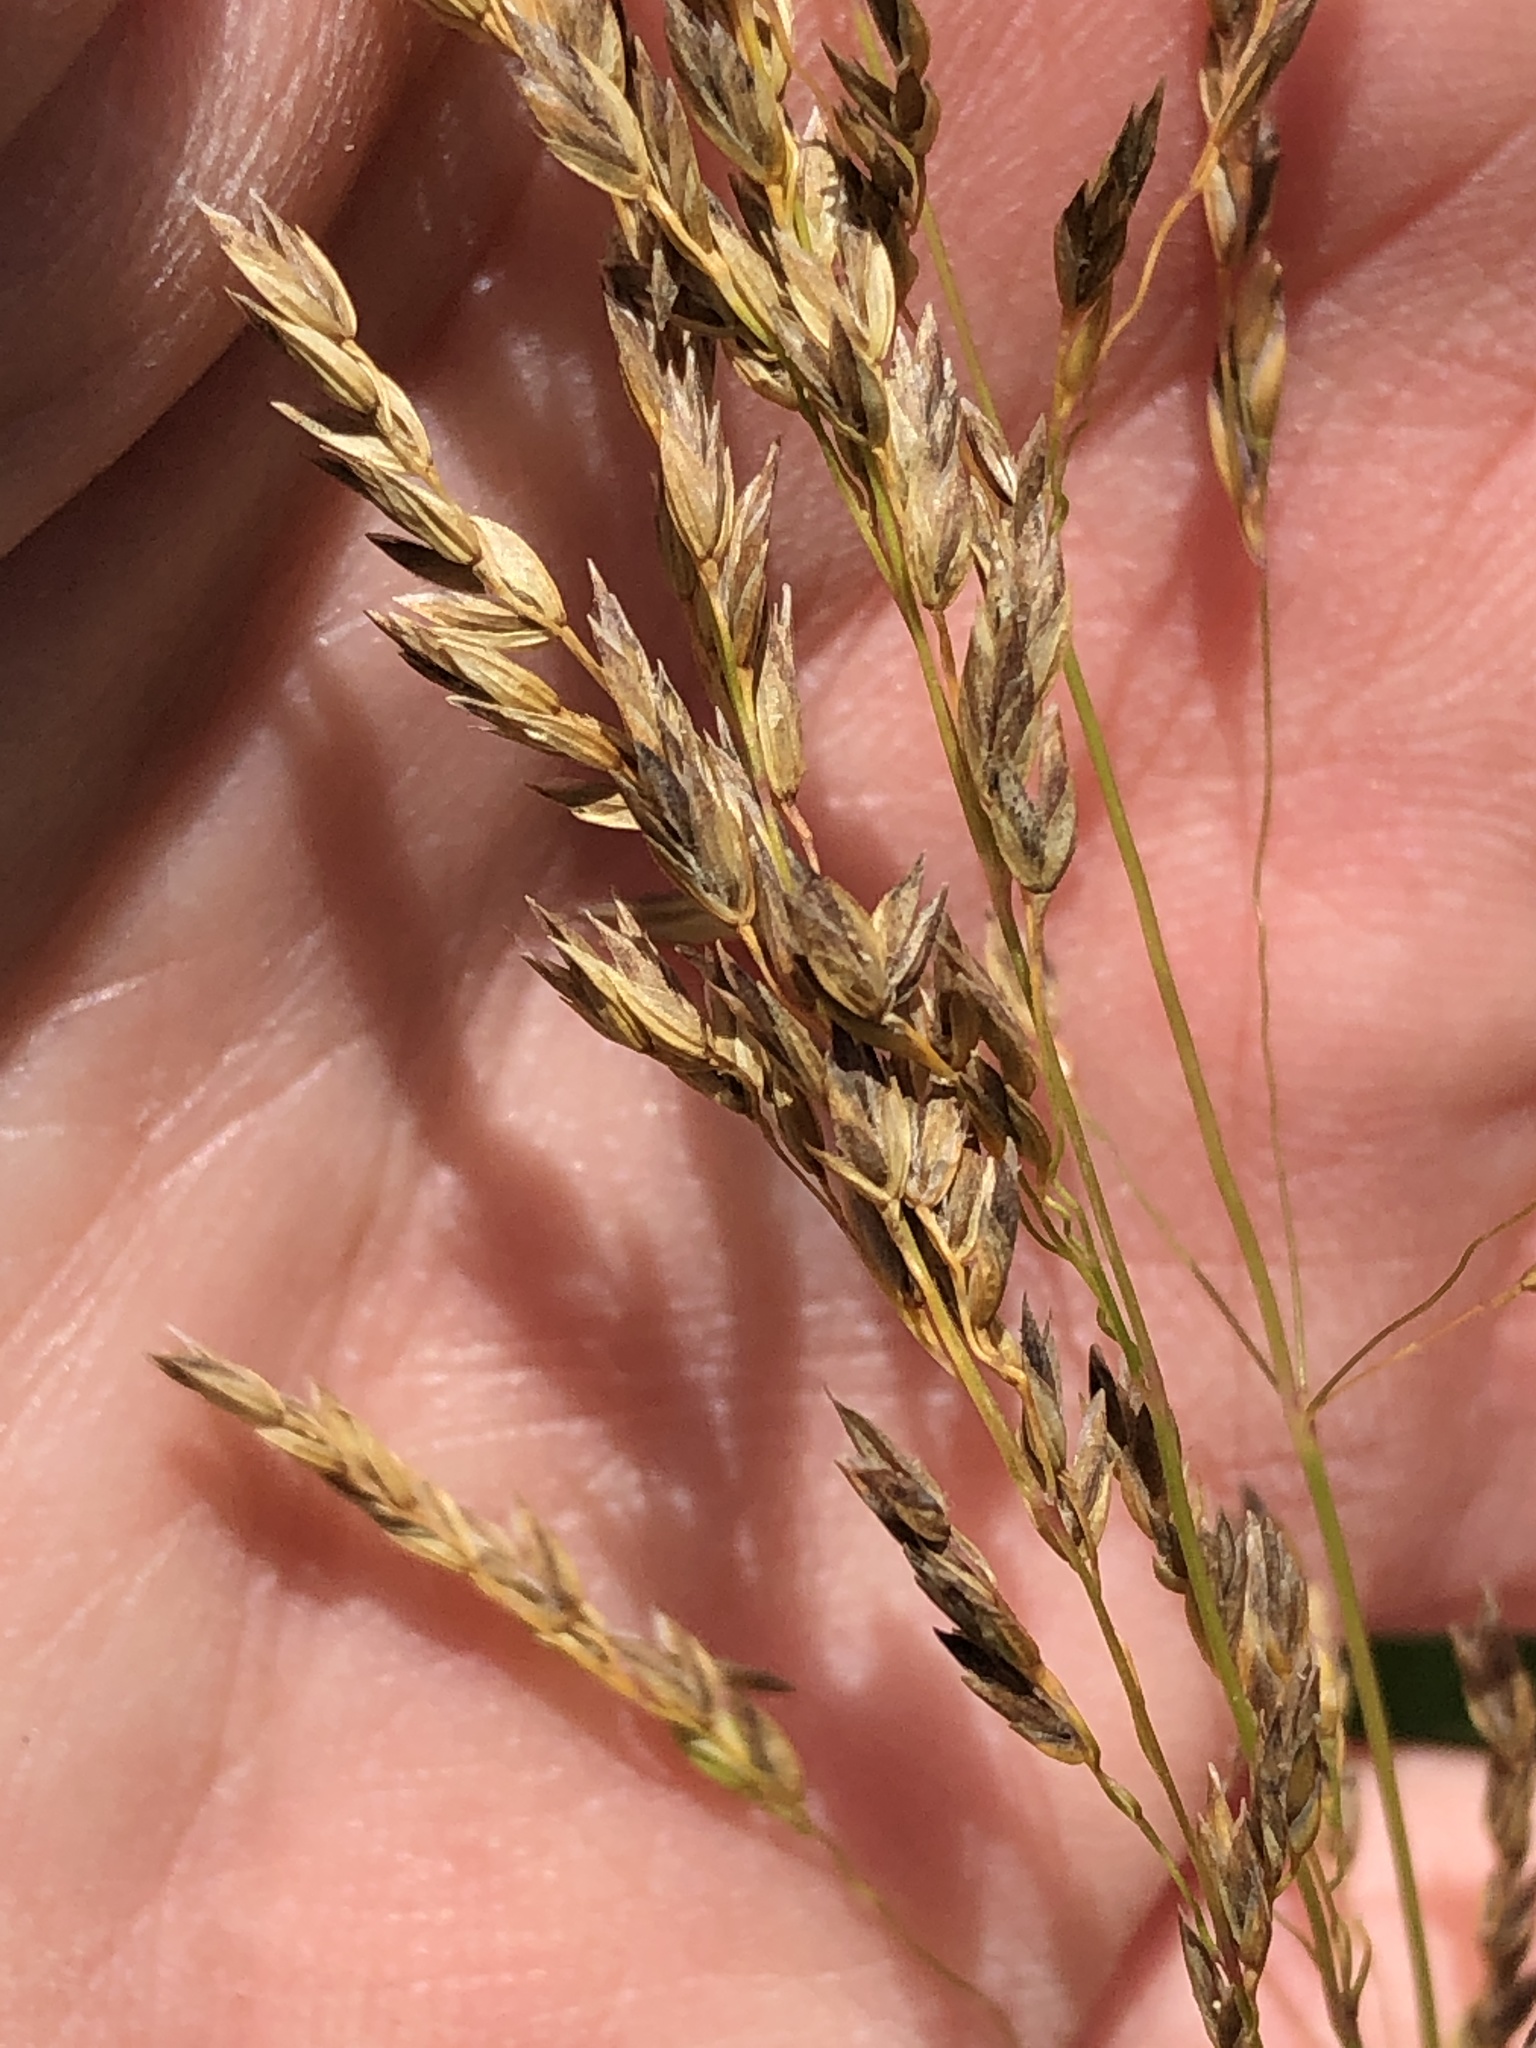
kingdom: Plantae
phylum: Tracheophyta
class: Liliopsida
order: Poales
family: Poaceae
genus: Poa
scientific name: Poa pratensis
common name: Kentucky bluegrass
